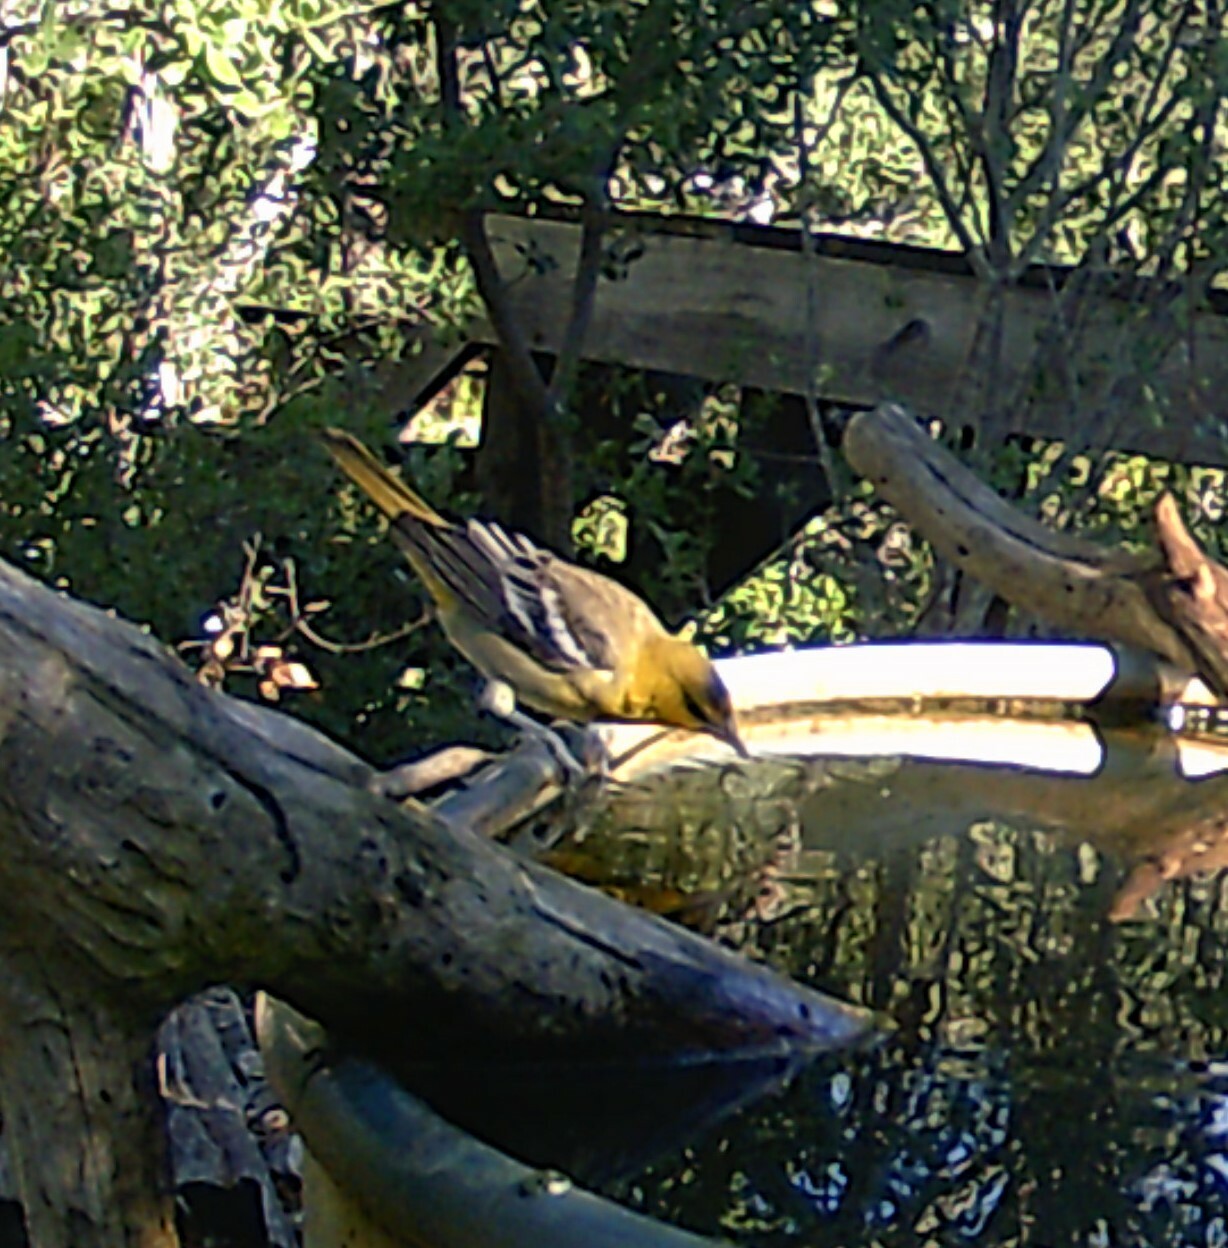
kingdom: Animalia
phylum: Chordata
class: Aves
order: Passeriformes
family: Icteridae
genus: Icterus
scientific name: Icterus bullockii
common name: Bullock's oriole
